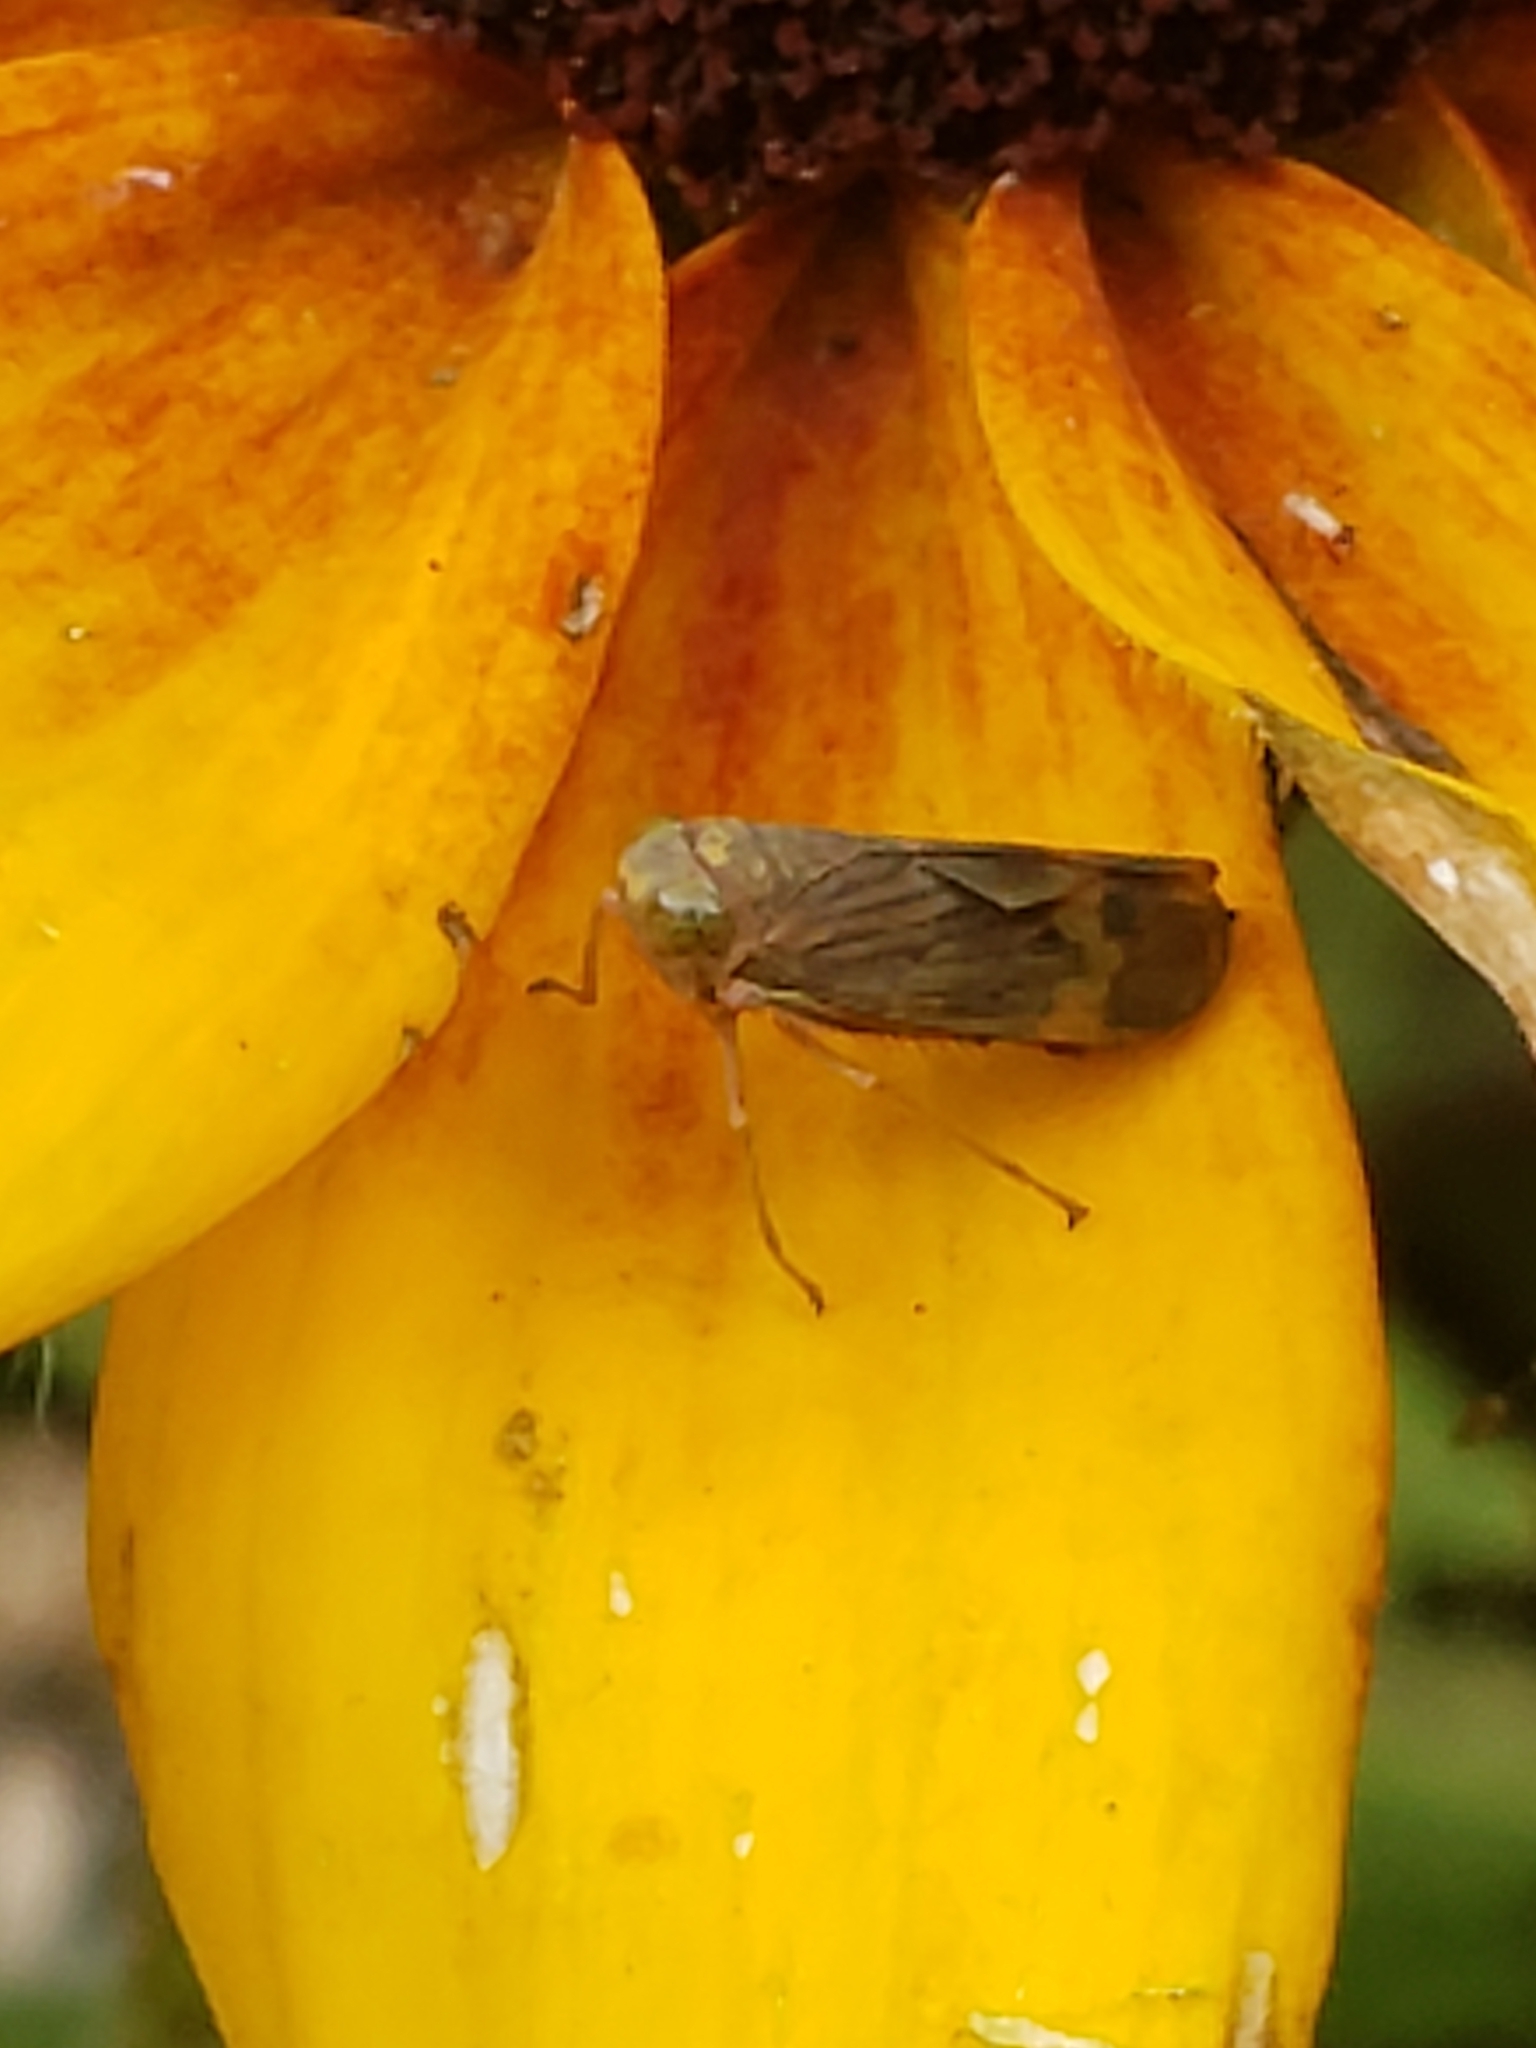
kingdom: Animalia
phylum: Arthropoda
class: Insecta
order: Hemiptera
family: Cicadellidae
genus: Jikradia
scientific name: Jikradia olitoria
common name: Coppery leafhopper
